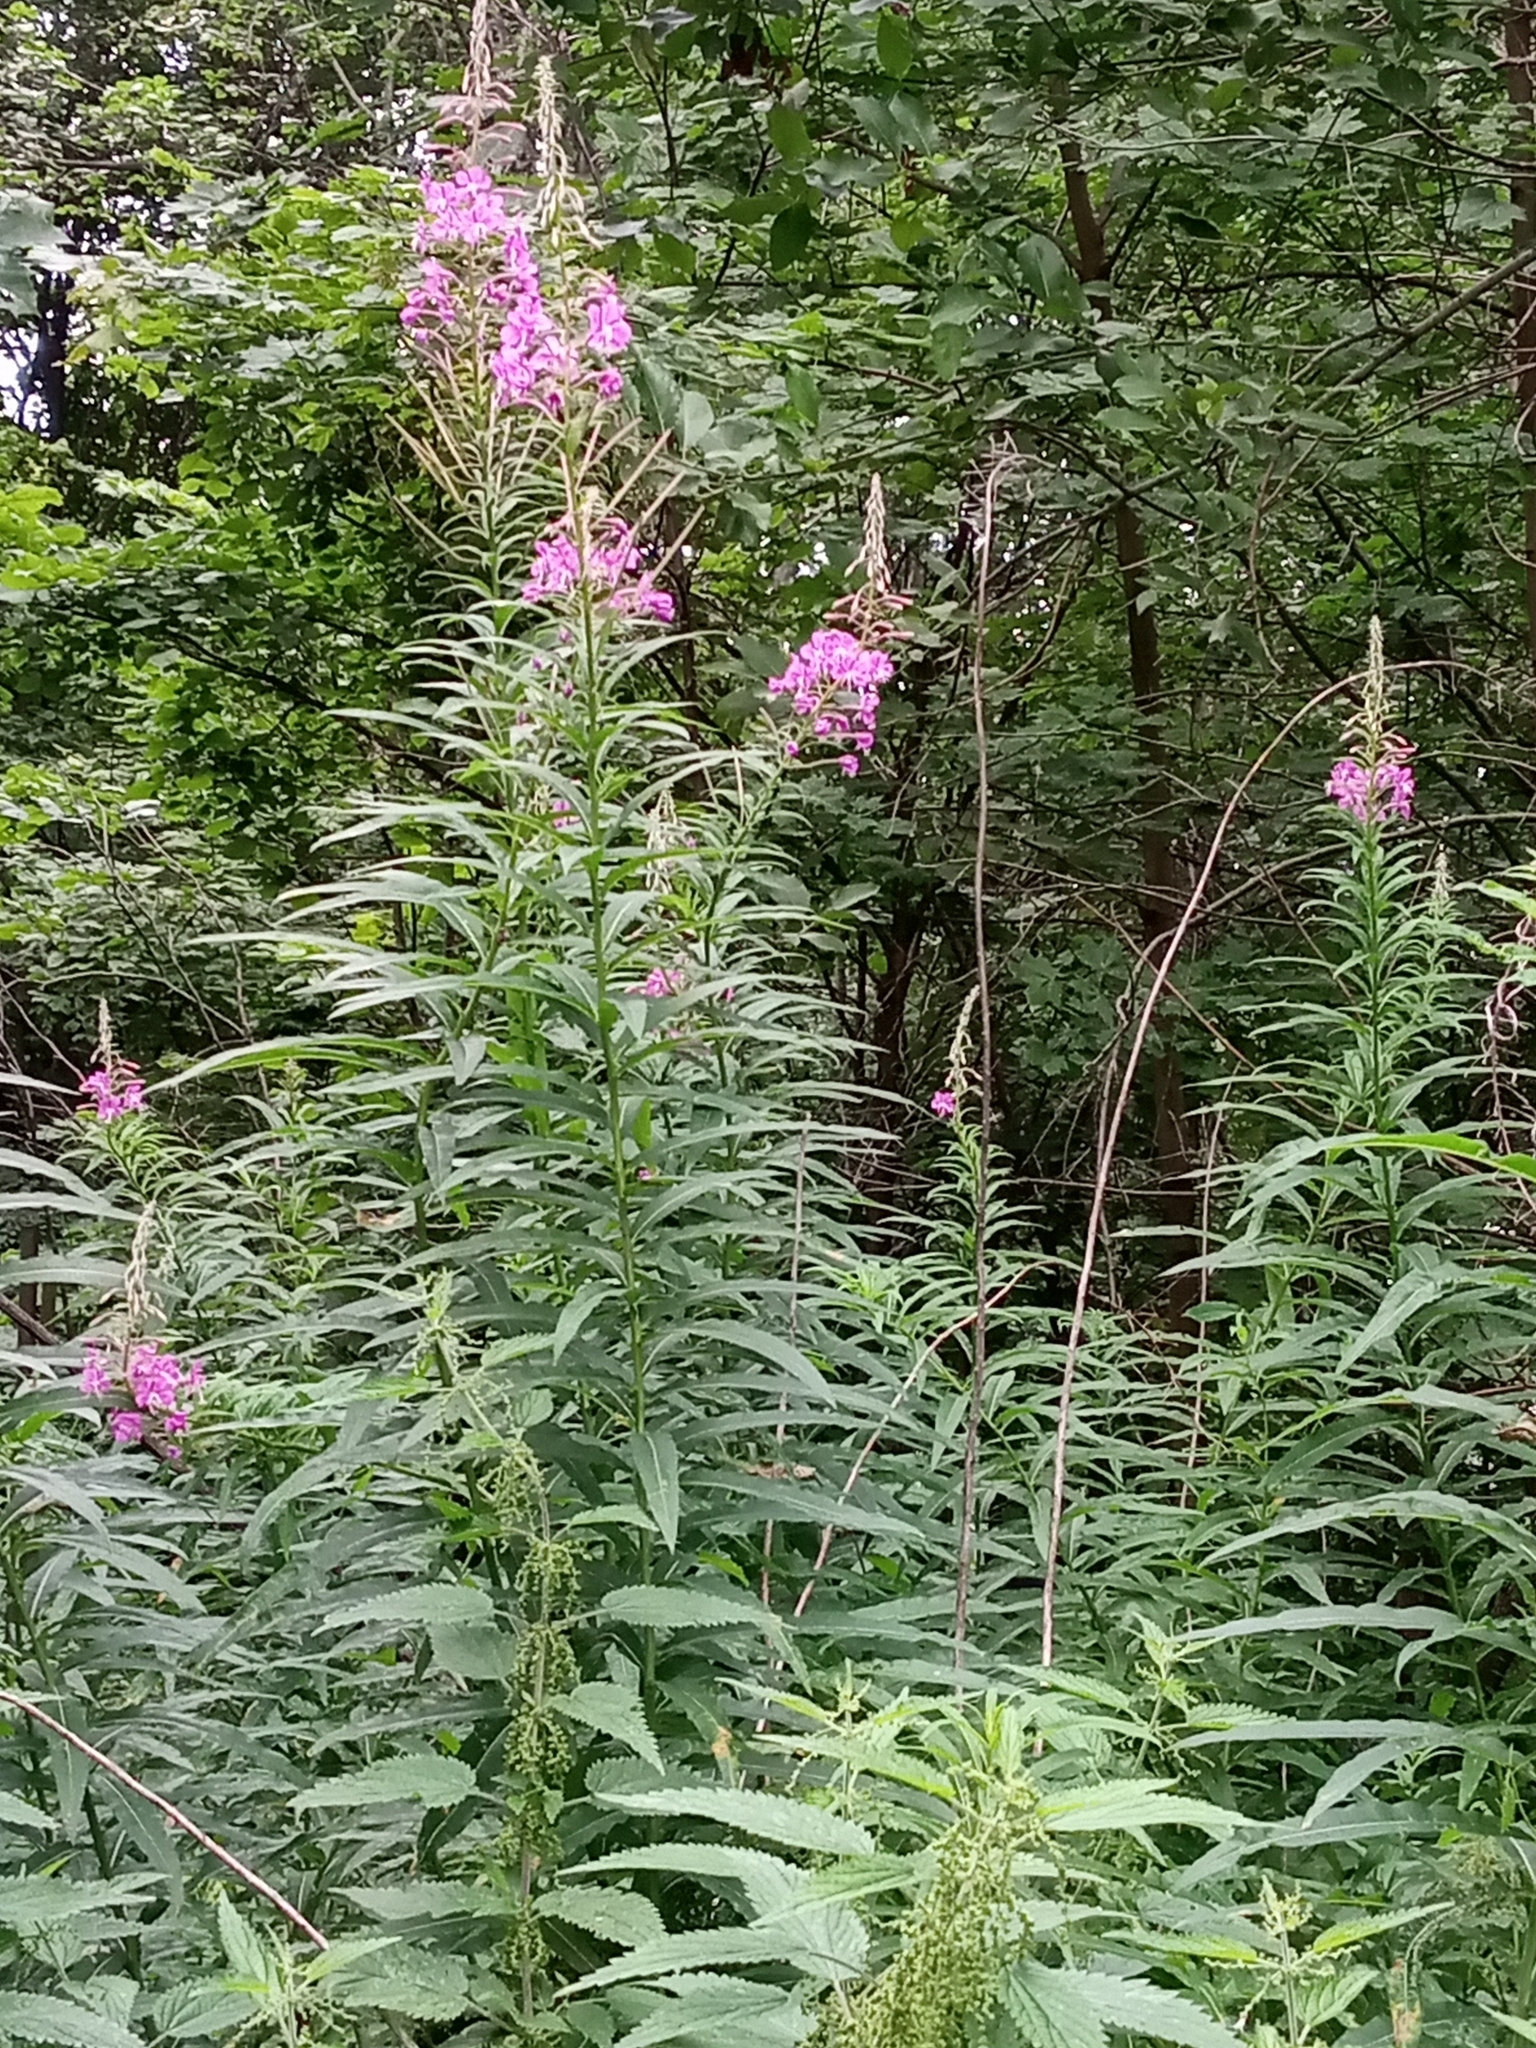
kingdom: Plantae
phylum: Tracheophyta
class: Magnoliopsida
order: Myrtales
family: Onagraceae
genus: Chamaenerion
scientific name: Chamaenerion angustifolium
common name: Fireweed
